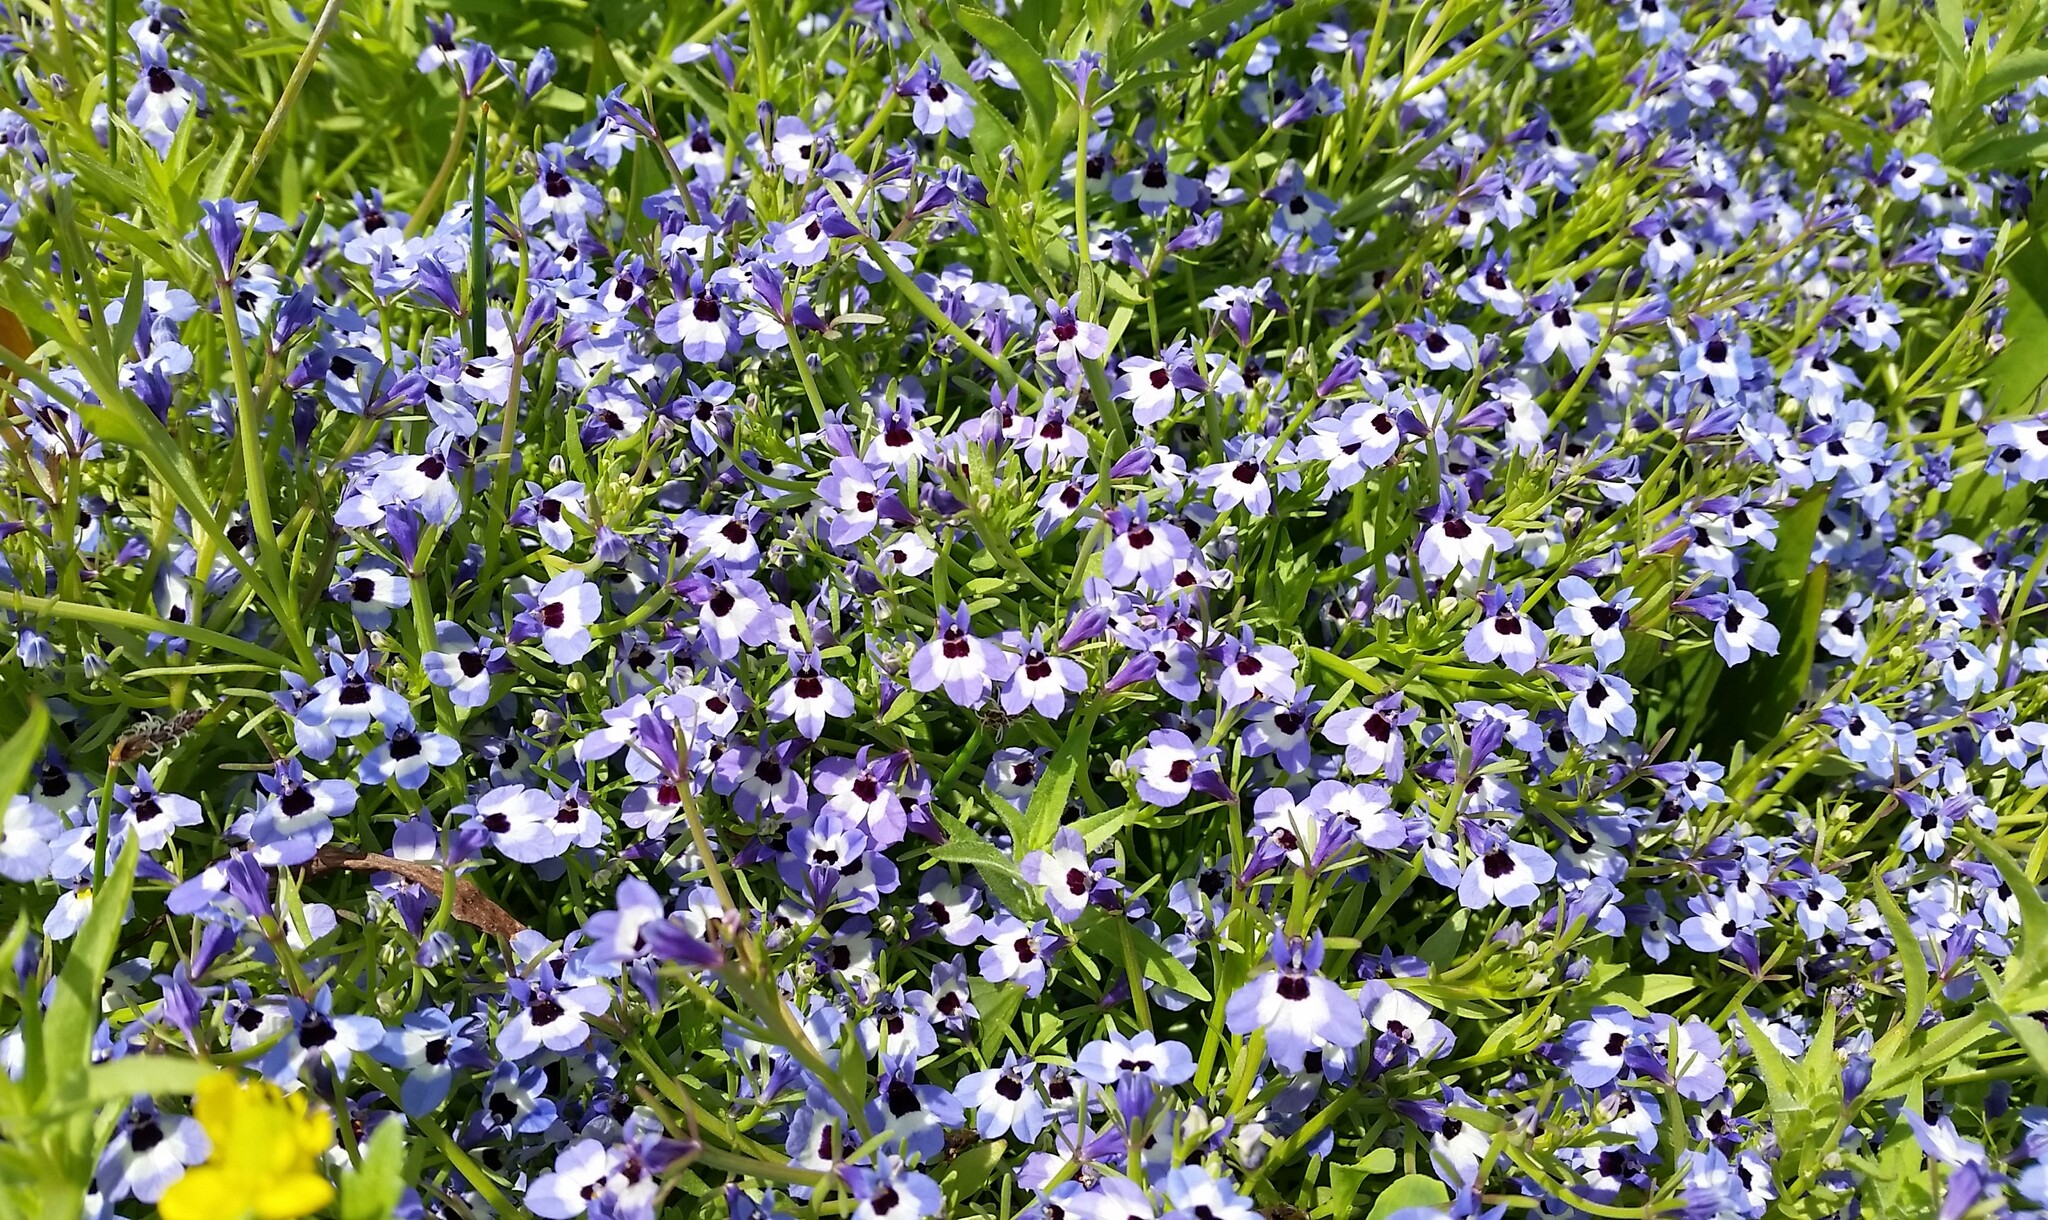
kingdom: Plantae
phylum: Tracheophyta
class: Magnoliopsida
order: Asterales
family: Campanulaceae
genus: Downingia
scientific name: Downingia concolor
